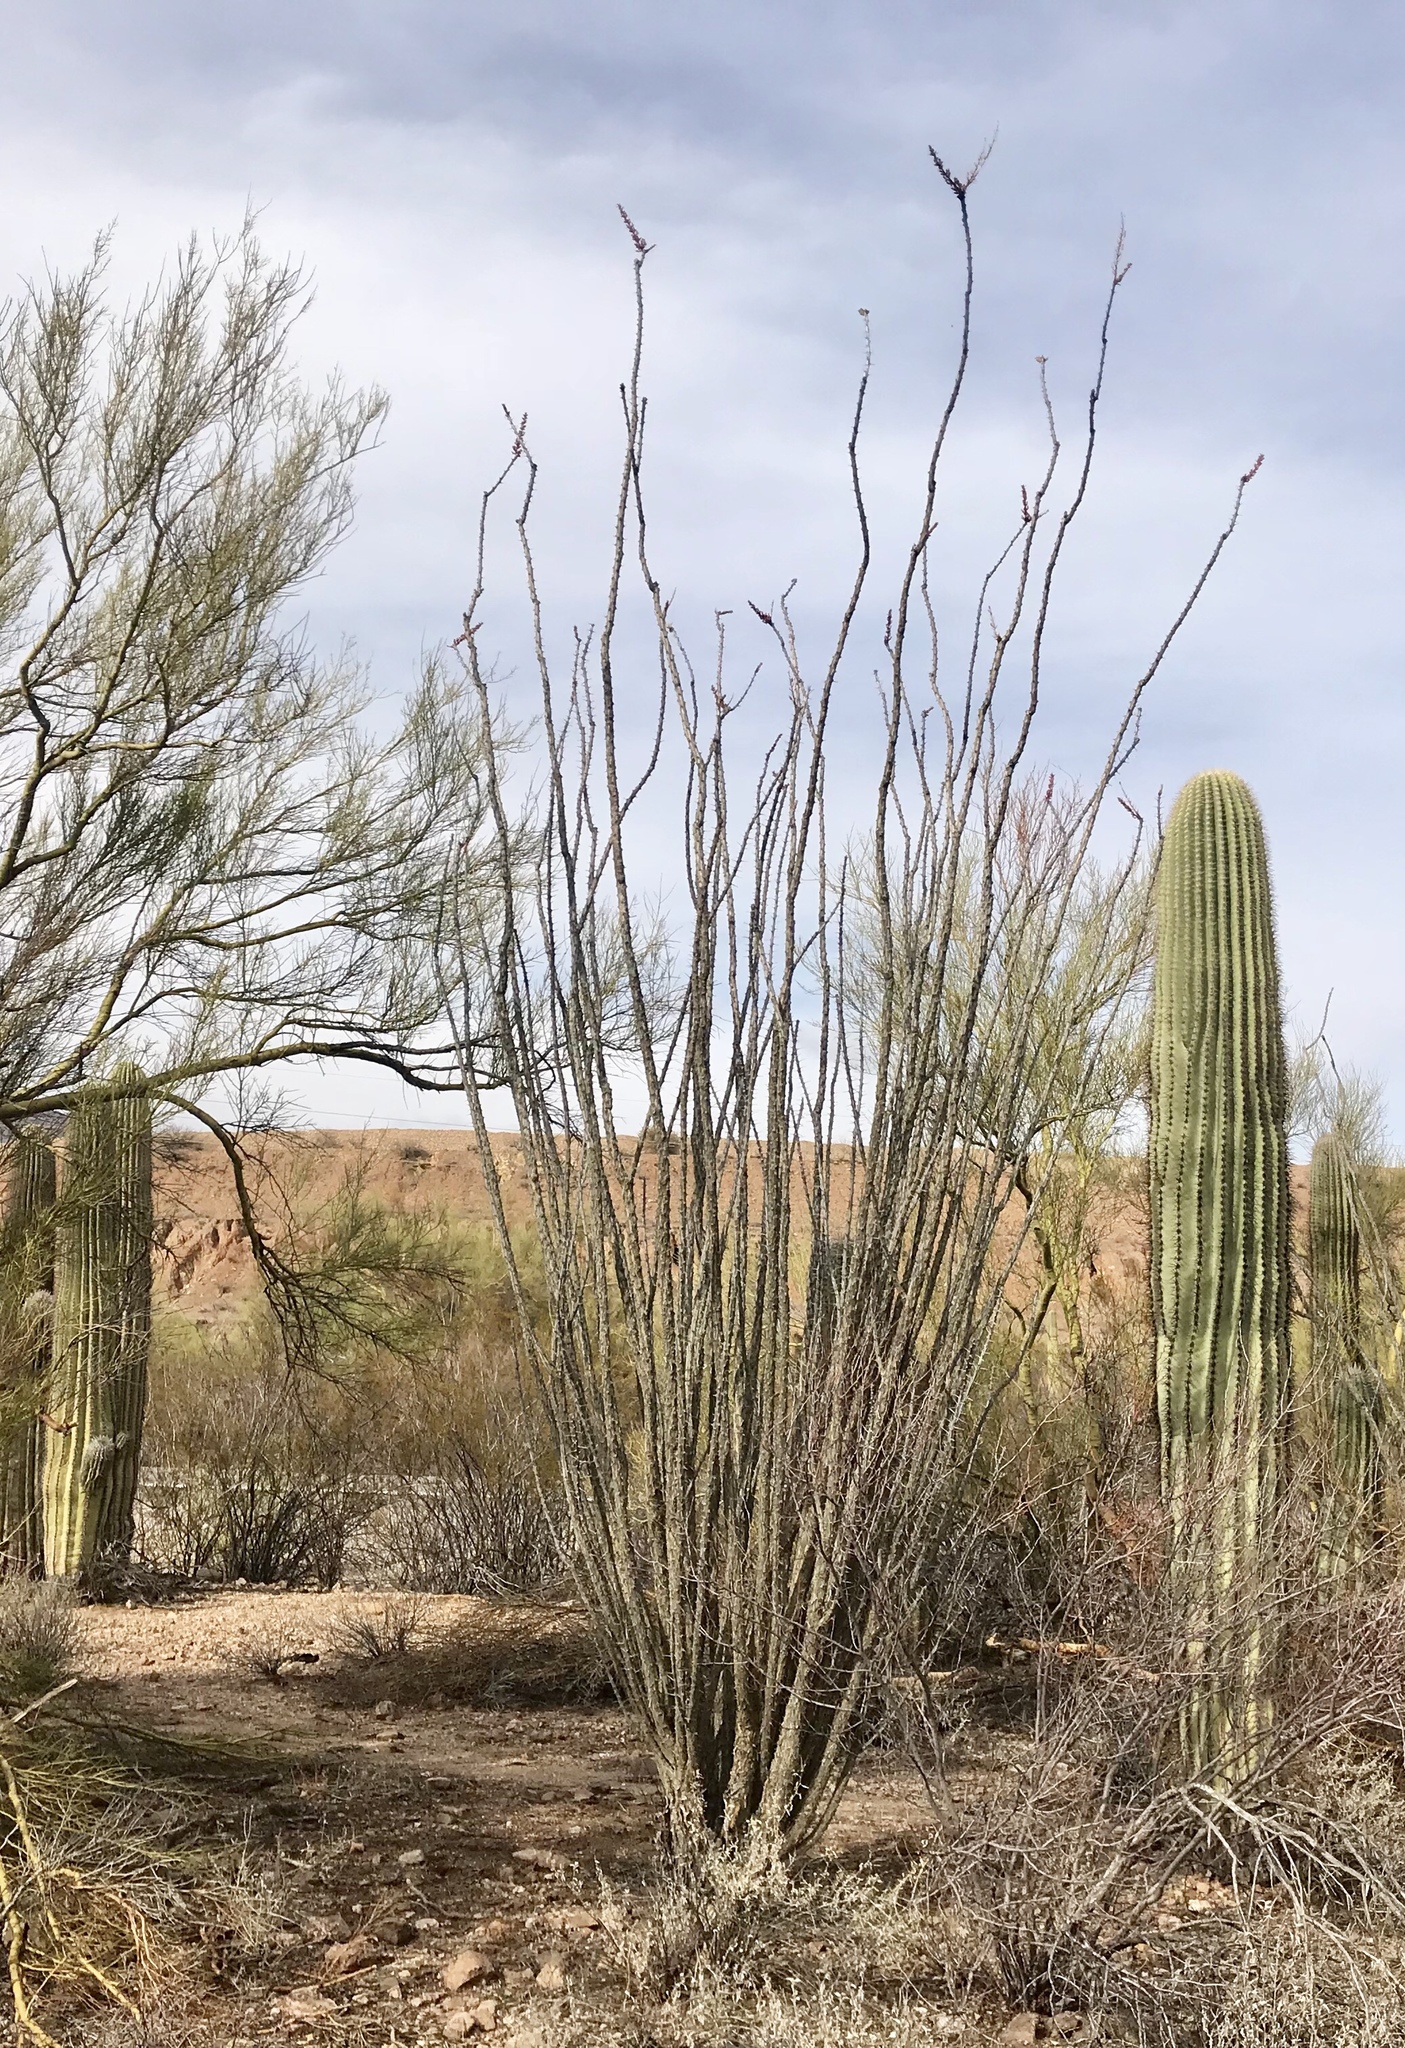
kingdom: Plantae
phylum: Tracheophyta
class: Magnoliopsida
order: Ericales
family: Fouquieriaceae
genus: Fouquieria
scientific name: Fouquieria splendens
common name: Vine-cactus
